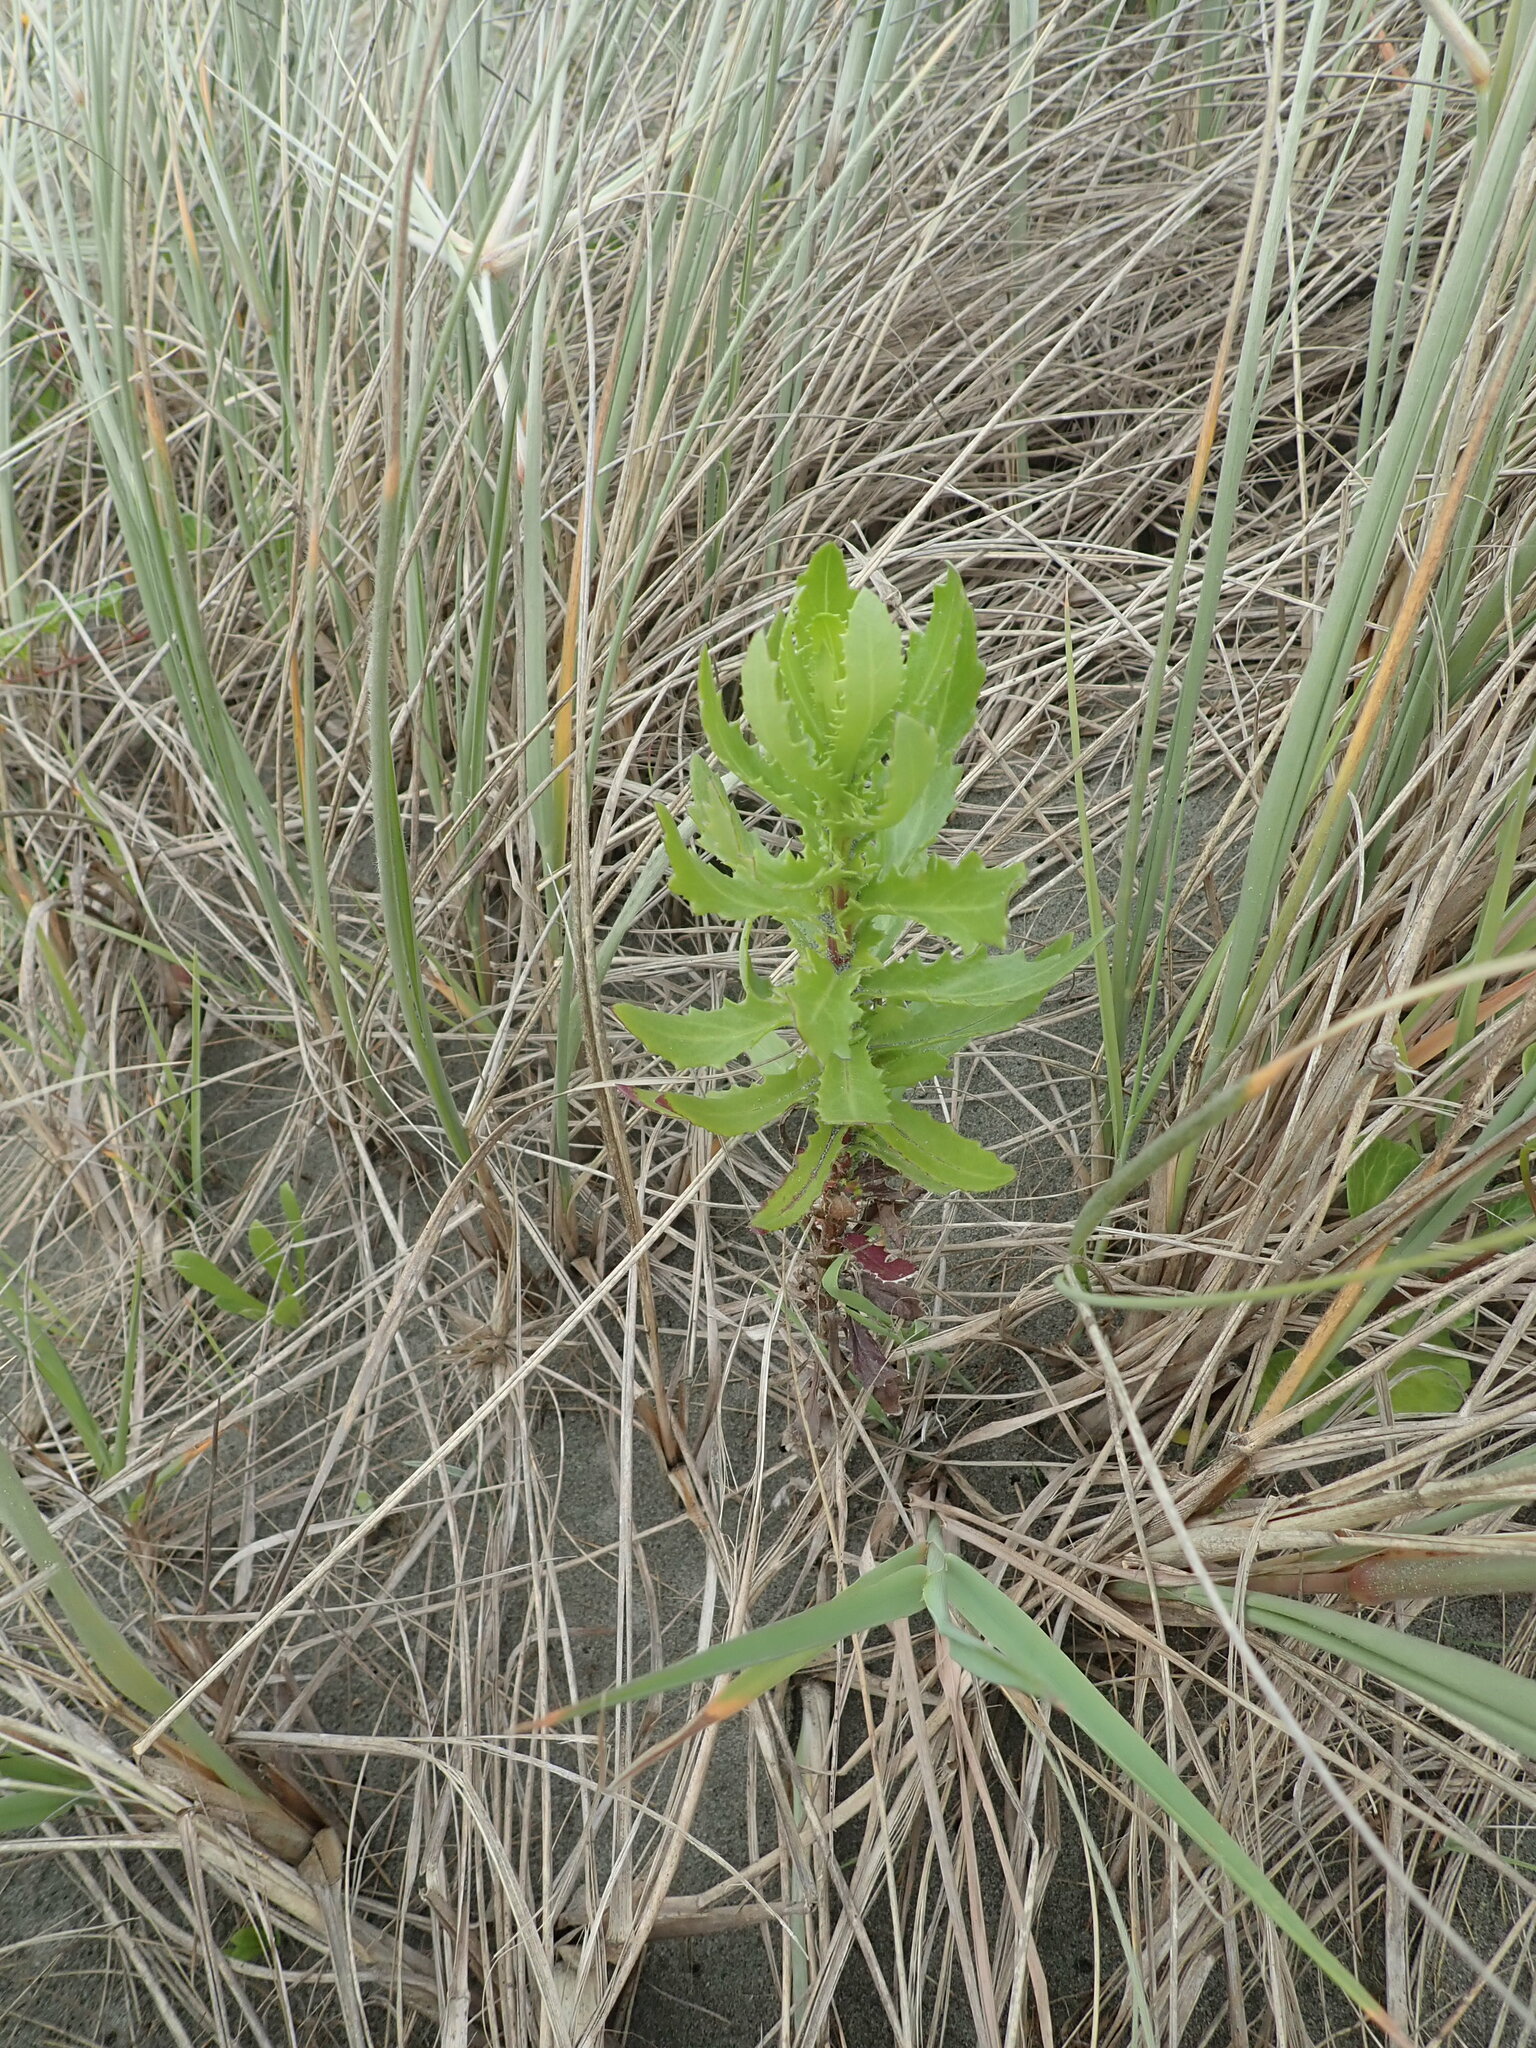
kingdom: Plantae
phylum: Tracheophyta
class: Magnoliopsida
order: Asterales
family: Asteraceae
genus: Senecio
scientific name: Senecio glastifolius
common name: Woad-leaved ragwort
